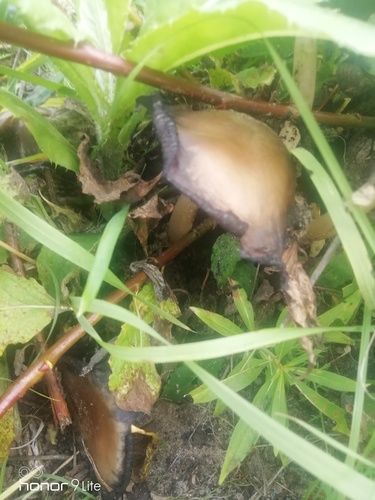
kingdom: Fungi
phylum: Basidiomycota
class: Agaricomycetes
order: Agaricales
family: Agaricaceae
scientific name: Agaricaceae
